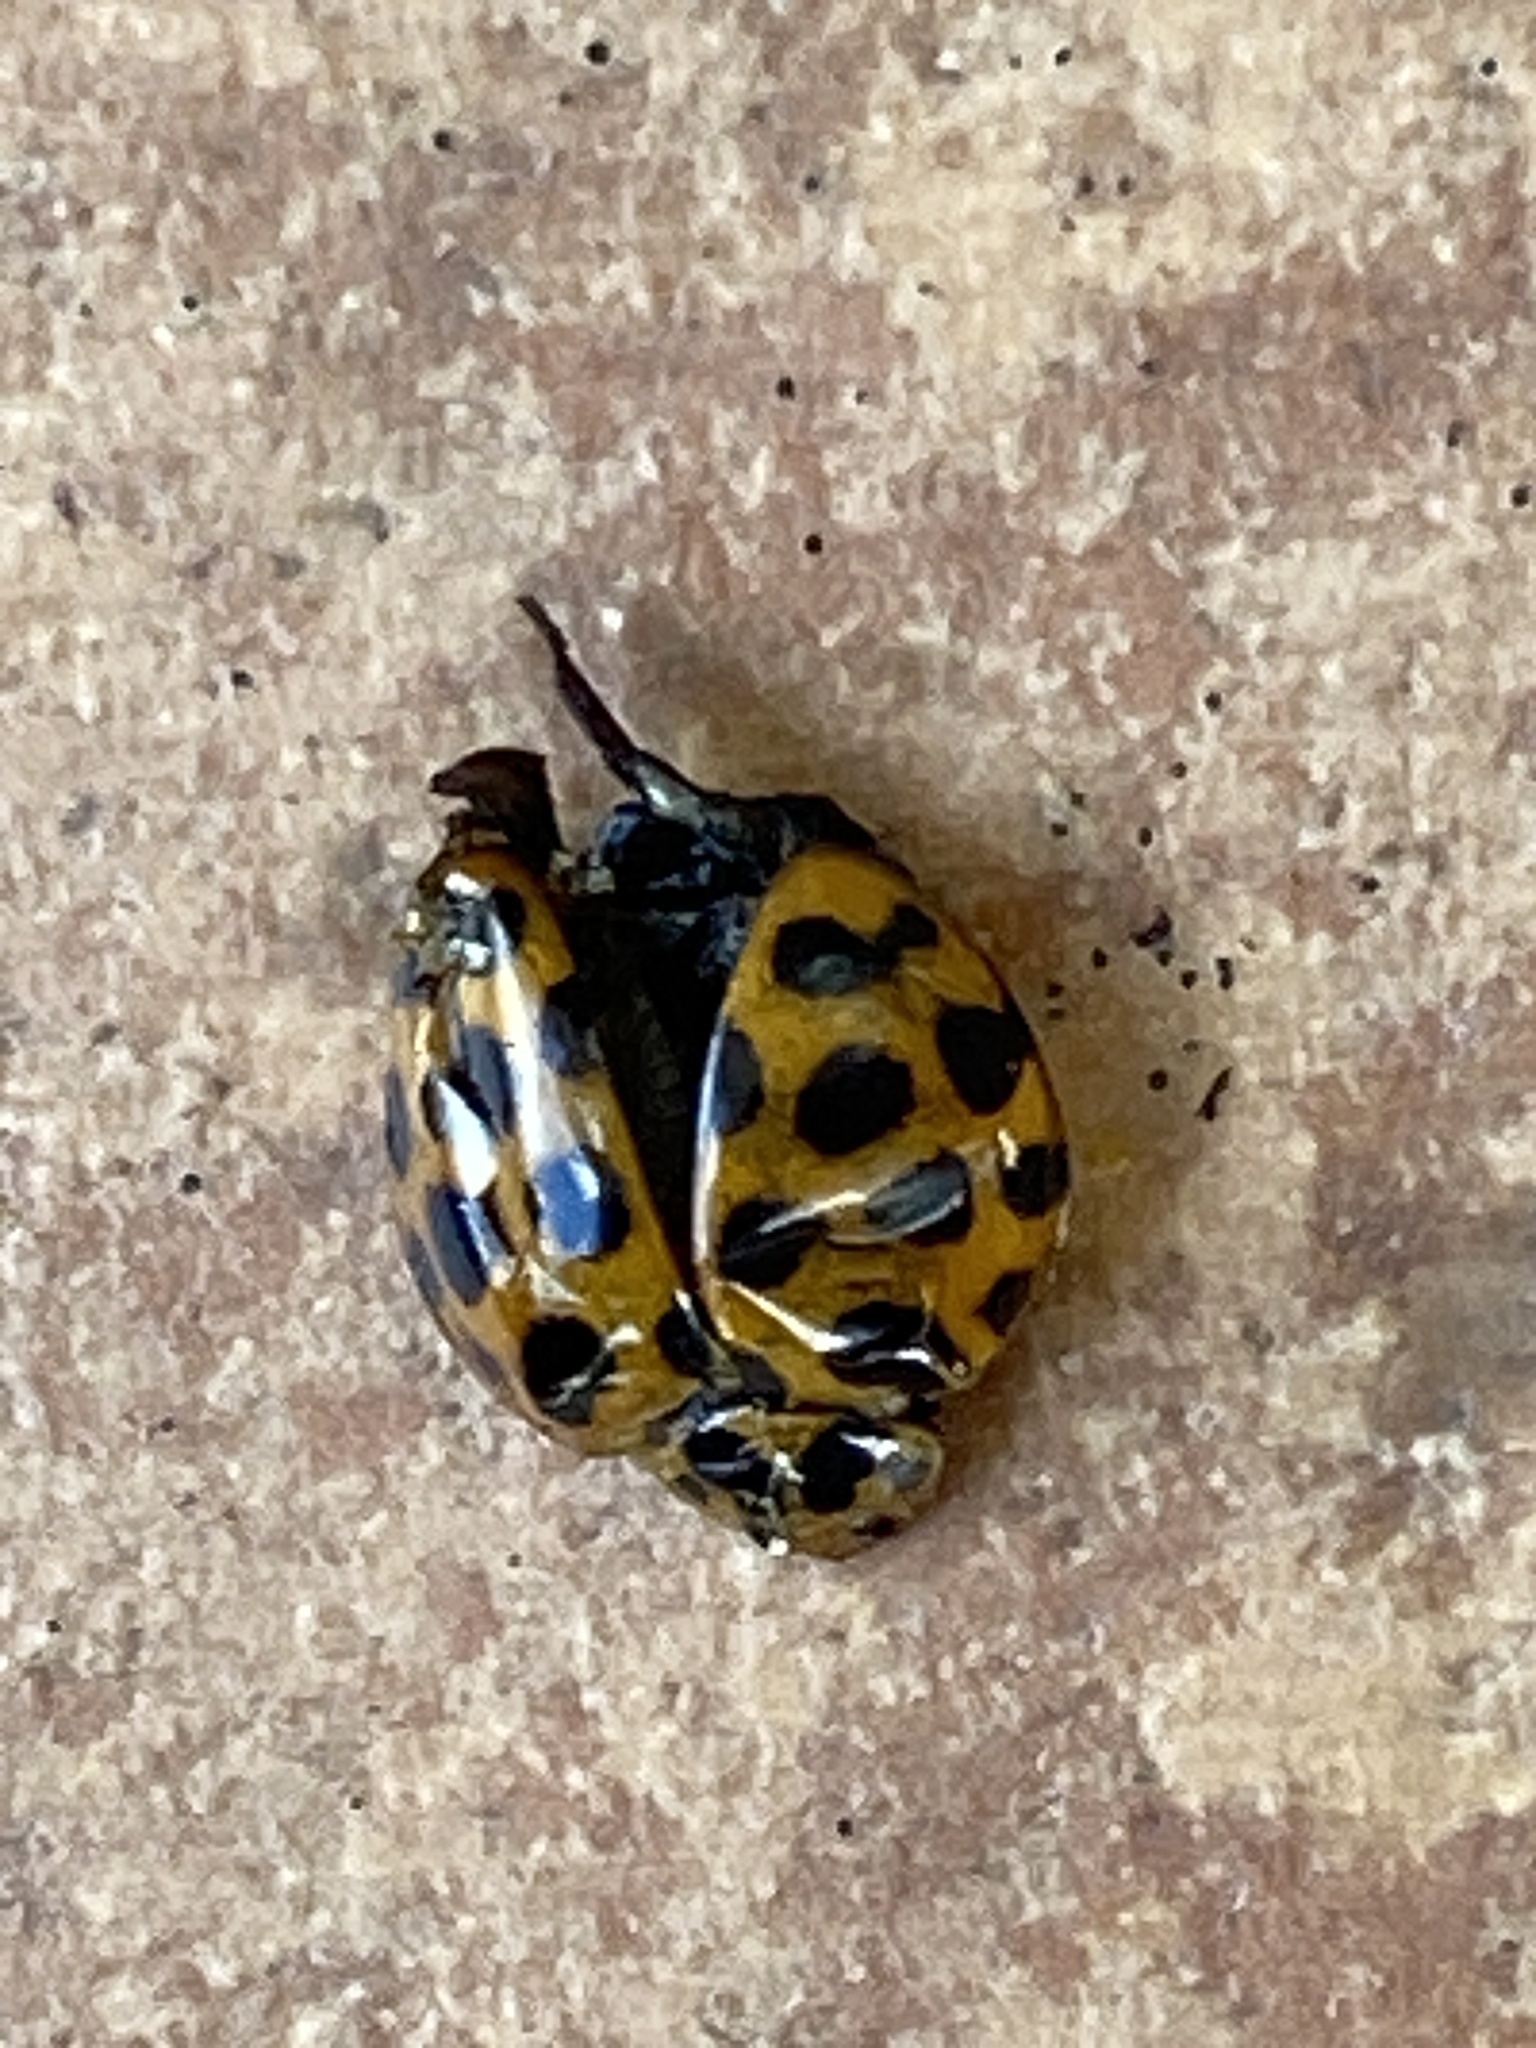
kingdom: Animalia
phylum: Arthropoda
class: Insecta
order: Coleoptera
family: Coccinellidae
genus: Harmonia
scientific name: Harmonia conformis
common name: Common spotted ladybird beetle
